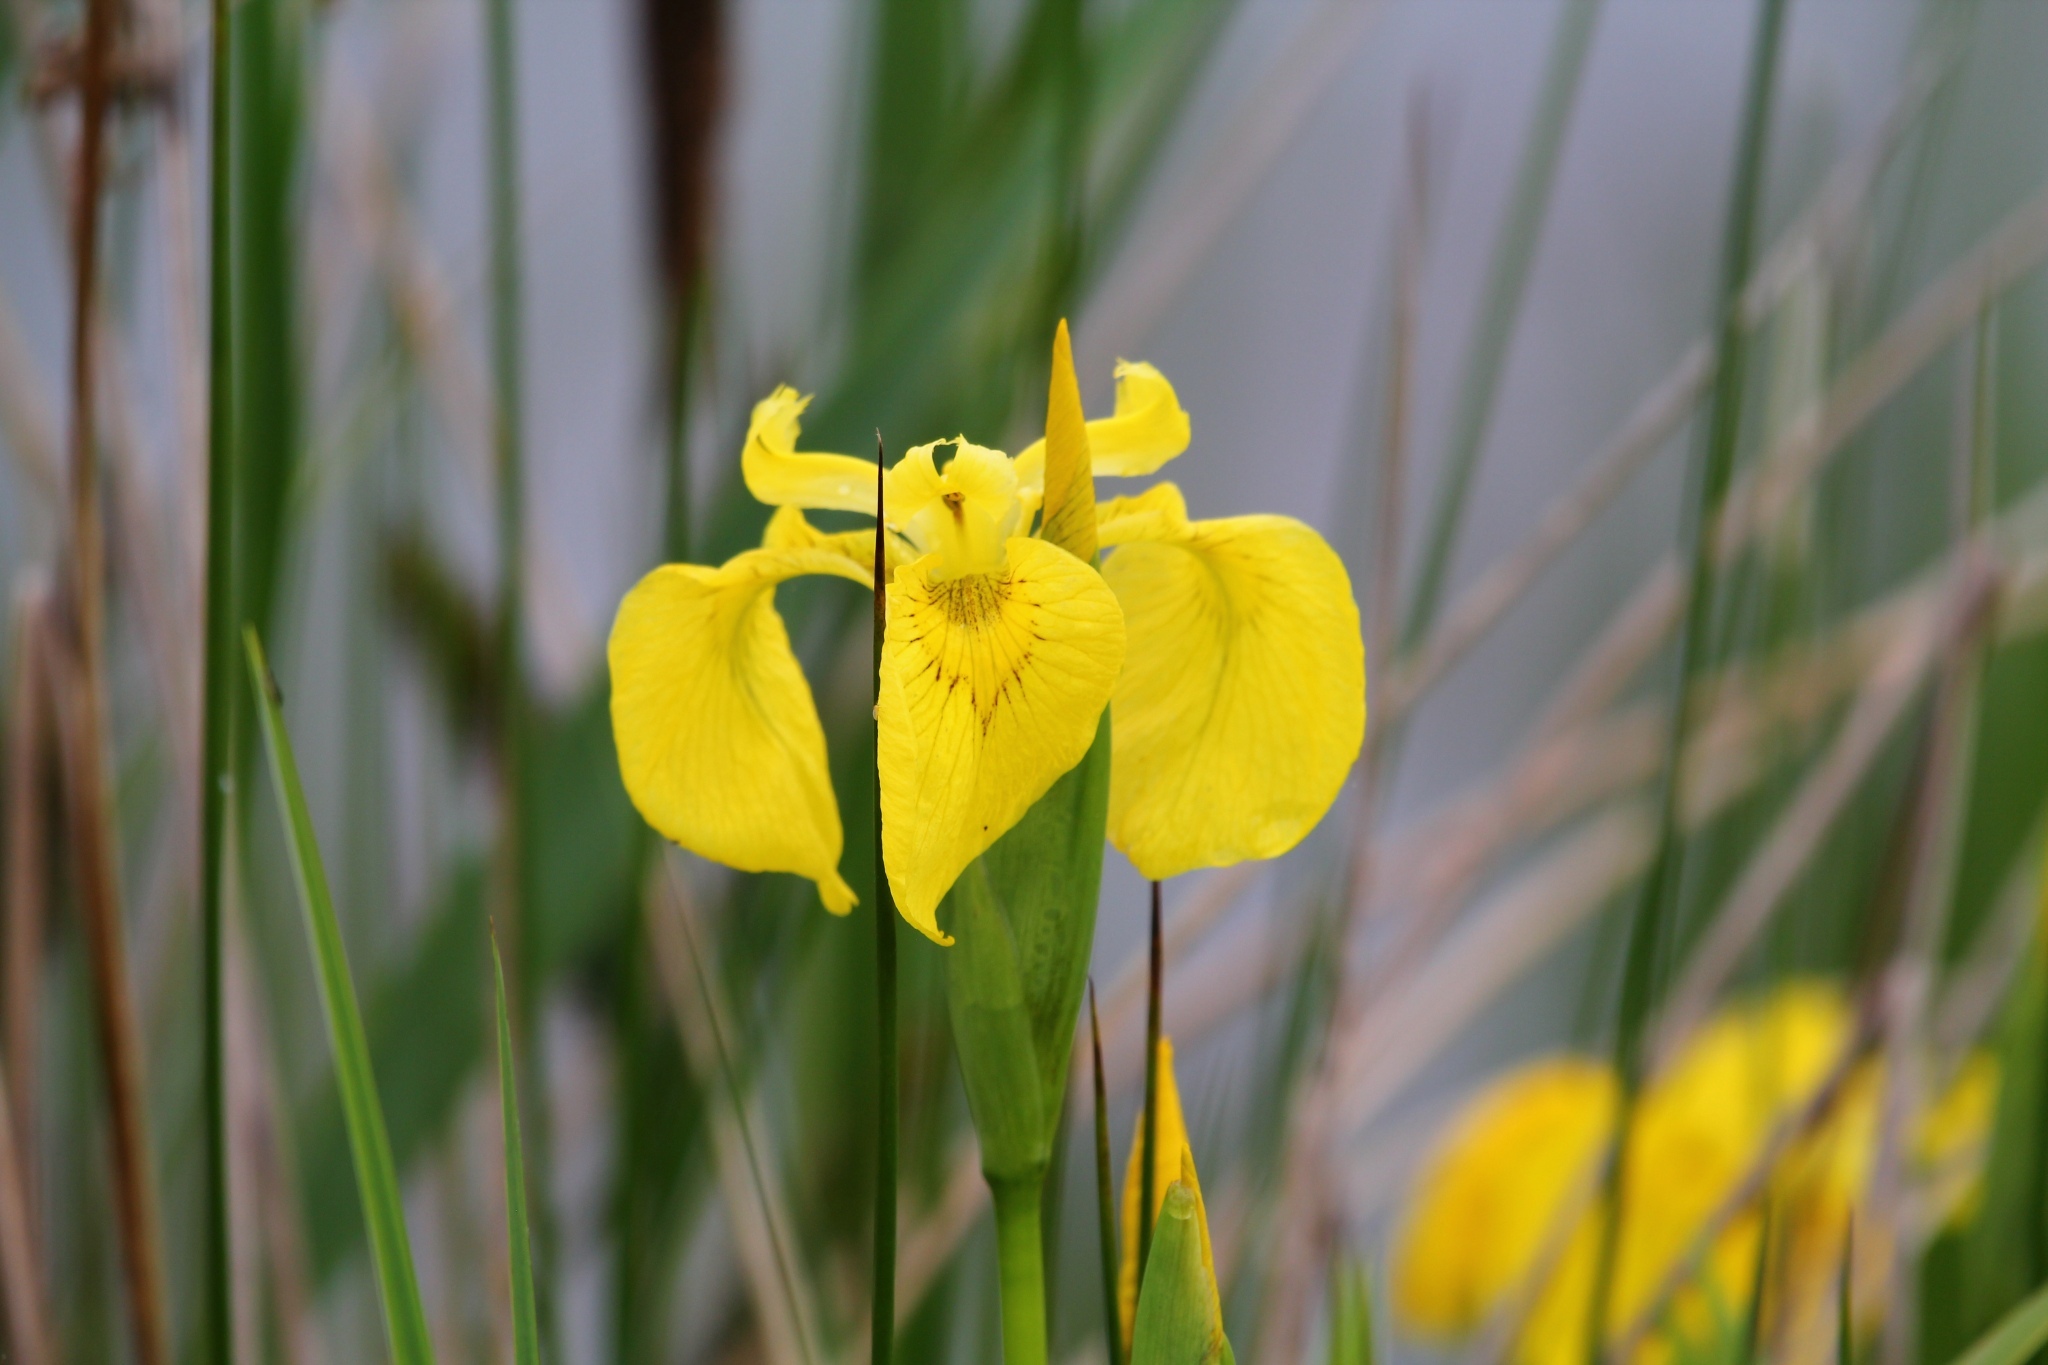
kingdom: Plantae
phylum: Tracheophyta
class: Liliopsida
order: Asparagales
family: Iridaceae
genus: Iris
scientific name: Iris pseudacorus
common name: Yellow flag
